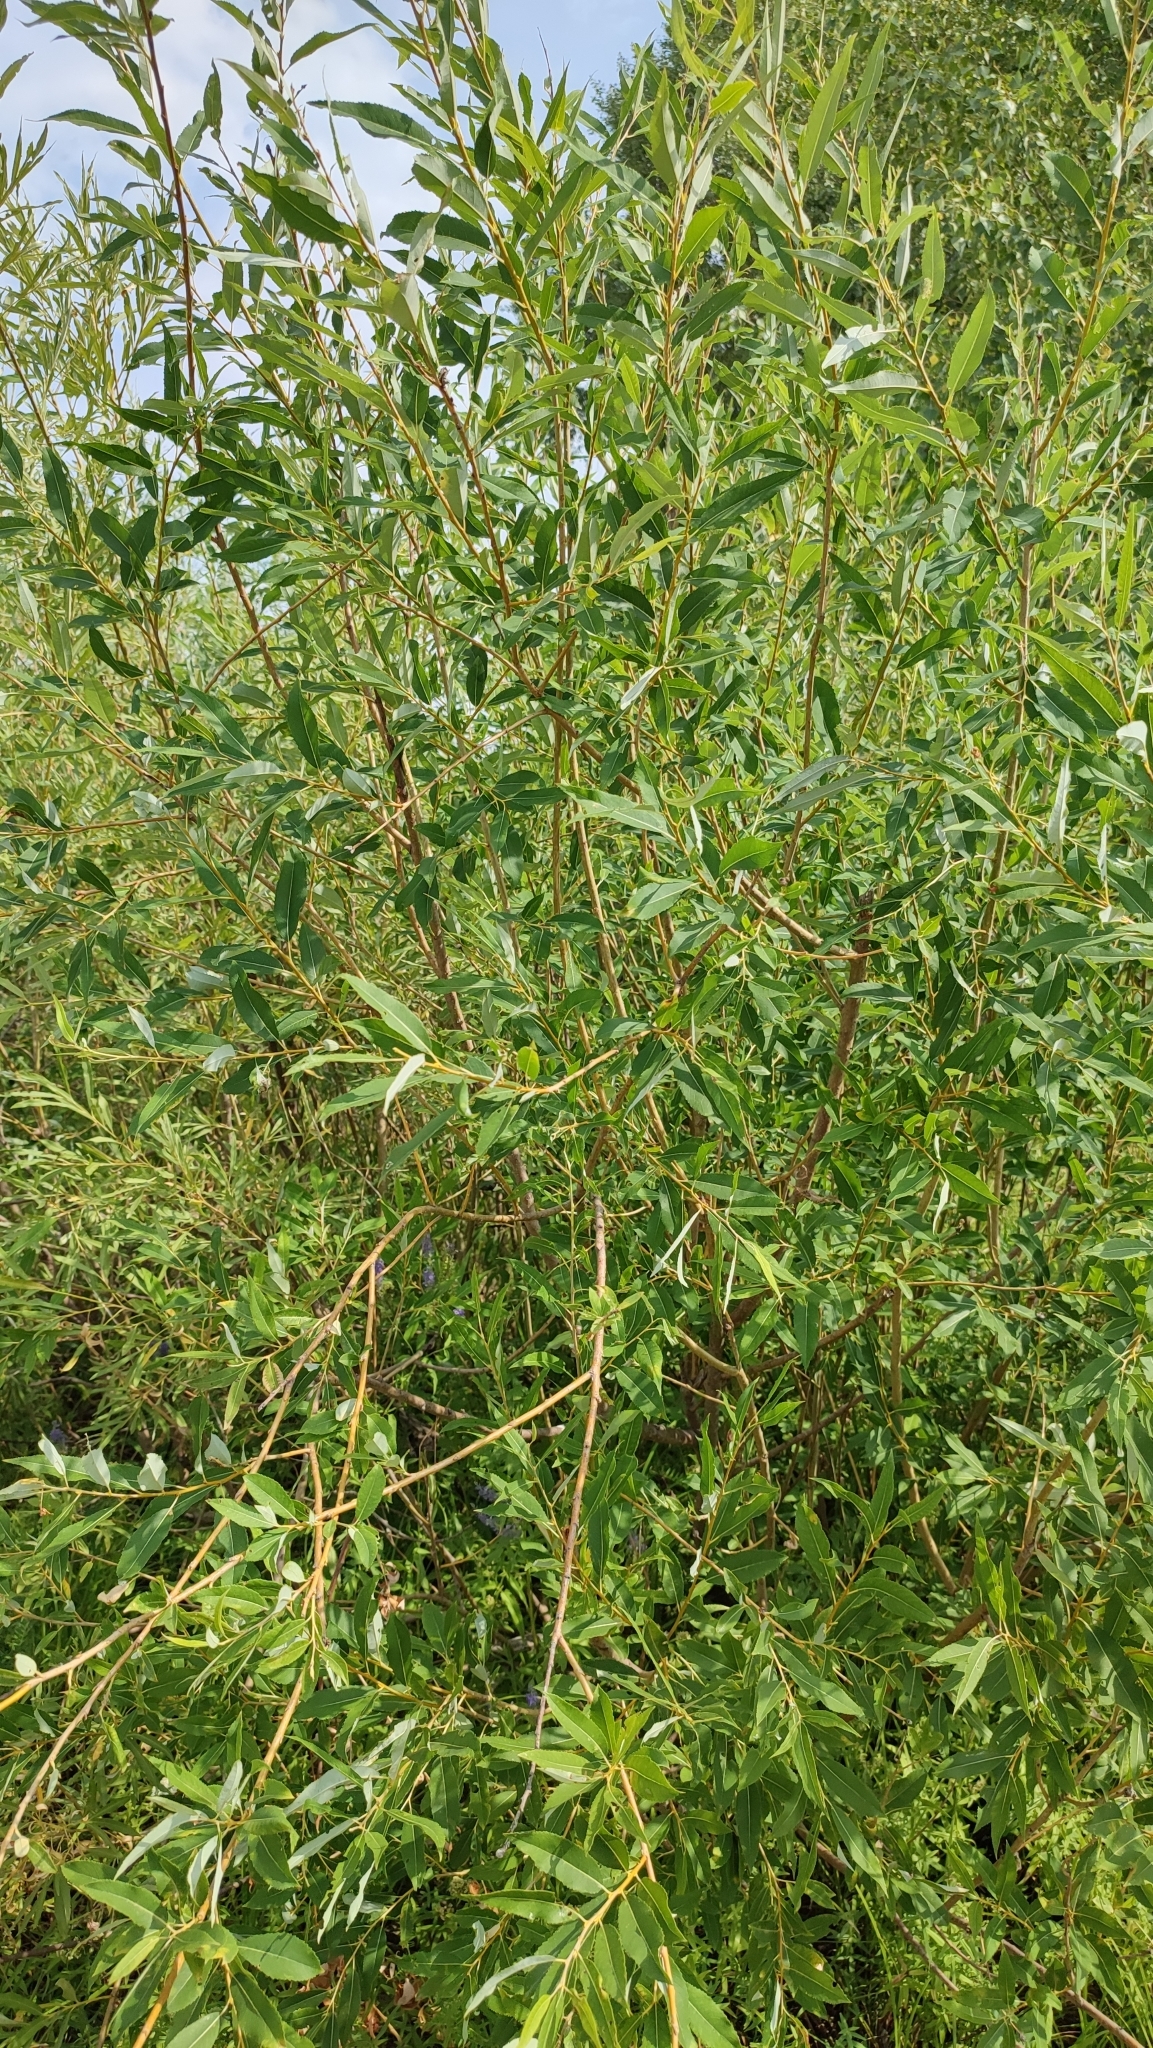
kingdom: Plantae
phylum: Tracheophyta
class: Magnoliopsida
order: Malpighiales
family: Salicaceae
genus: Salix
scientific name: Salix triandra
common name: Almond willow
